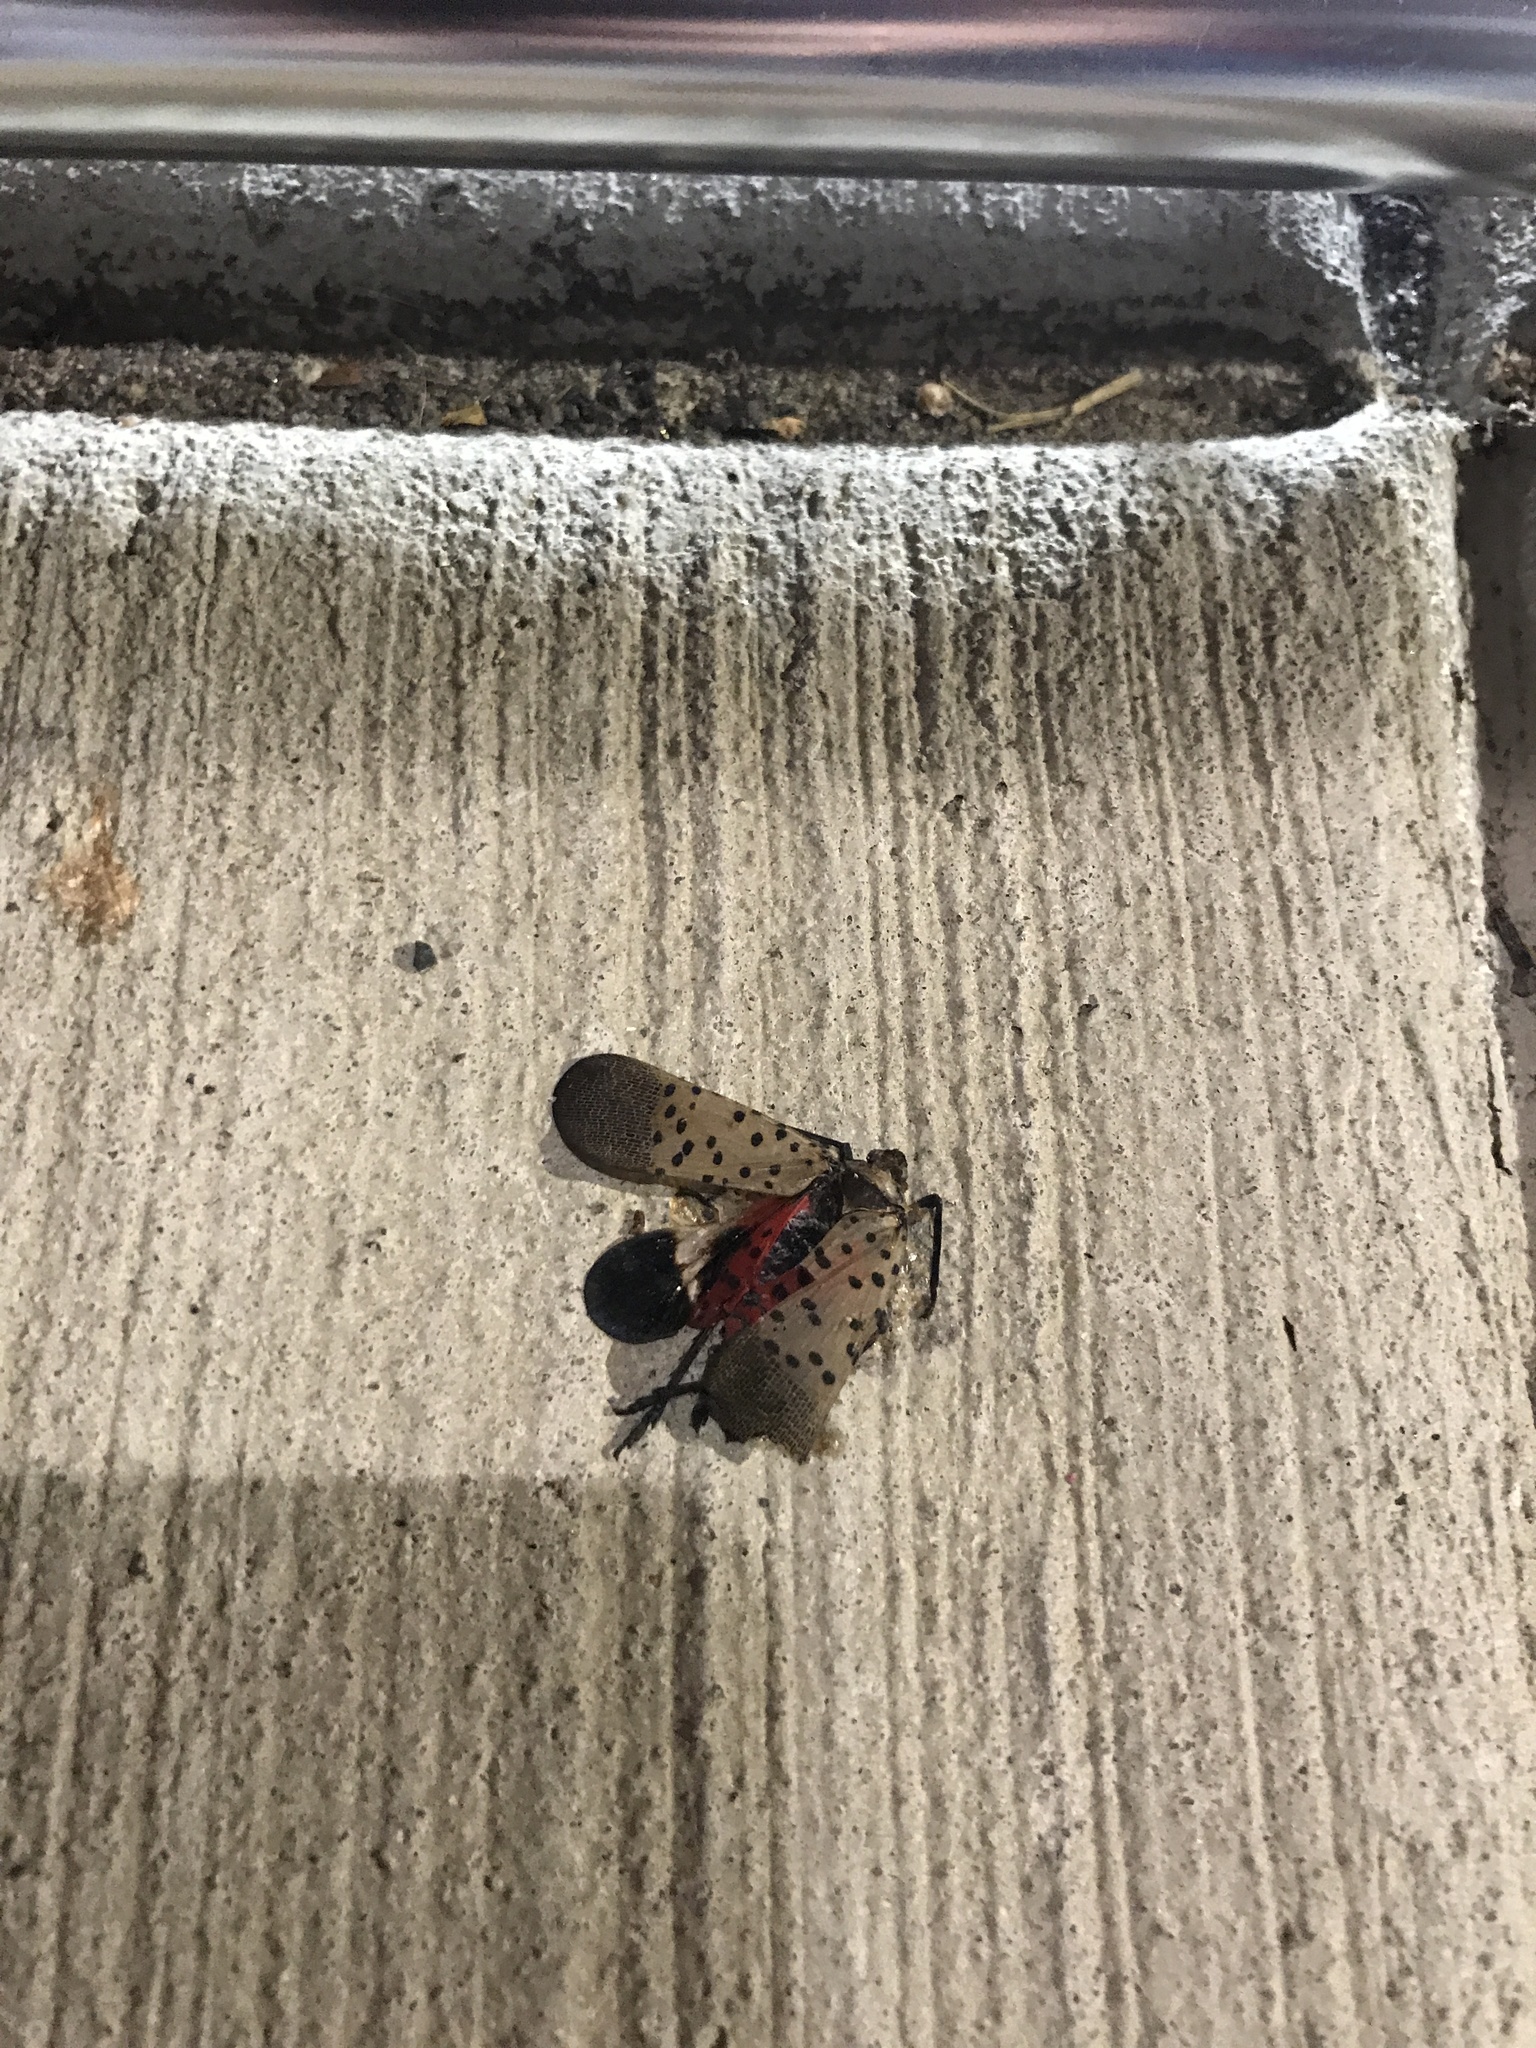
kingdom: Animalia
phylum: Arthropoda
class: Insecta
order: Hemiptera
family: Fulgoridae
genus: Lycorma
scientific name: Lycorma delicatula
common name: Spotted lanternfly
